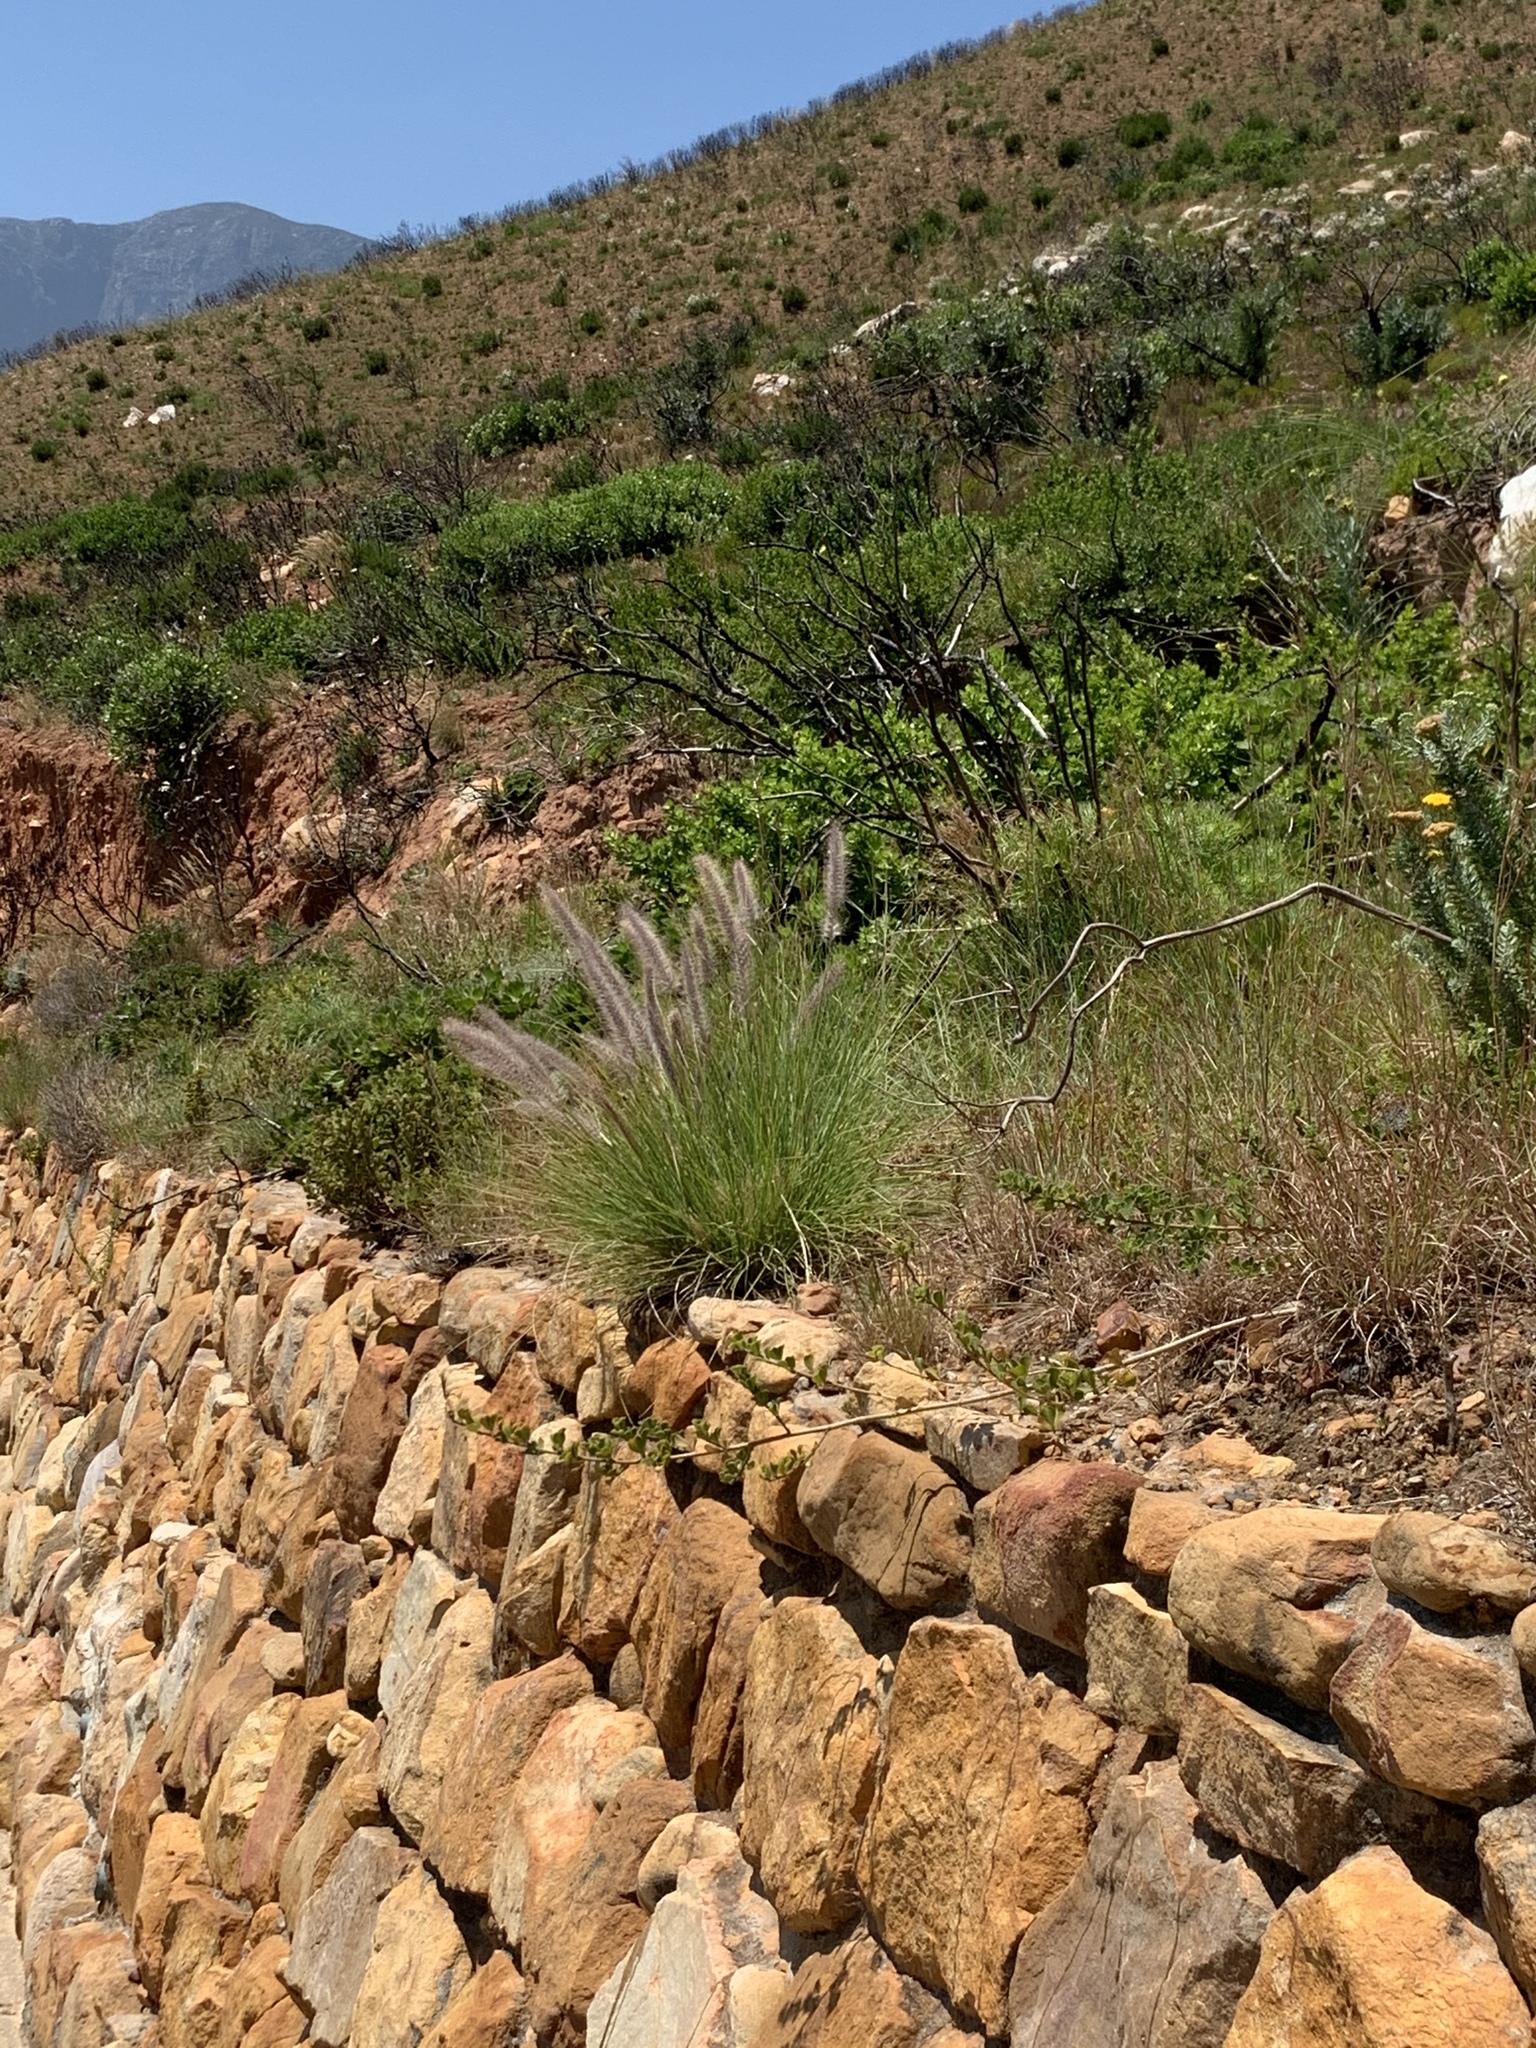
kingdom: Plantae
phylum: Tracheophyta
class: Liliopsida
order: Poales
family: Poaceae
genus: Cenchrus
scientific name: Cenchrus setaceus
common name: Crimson fountaingrass
